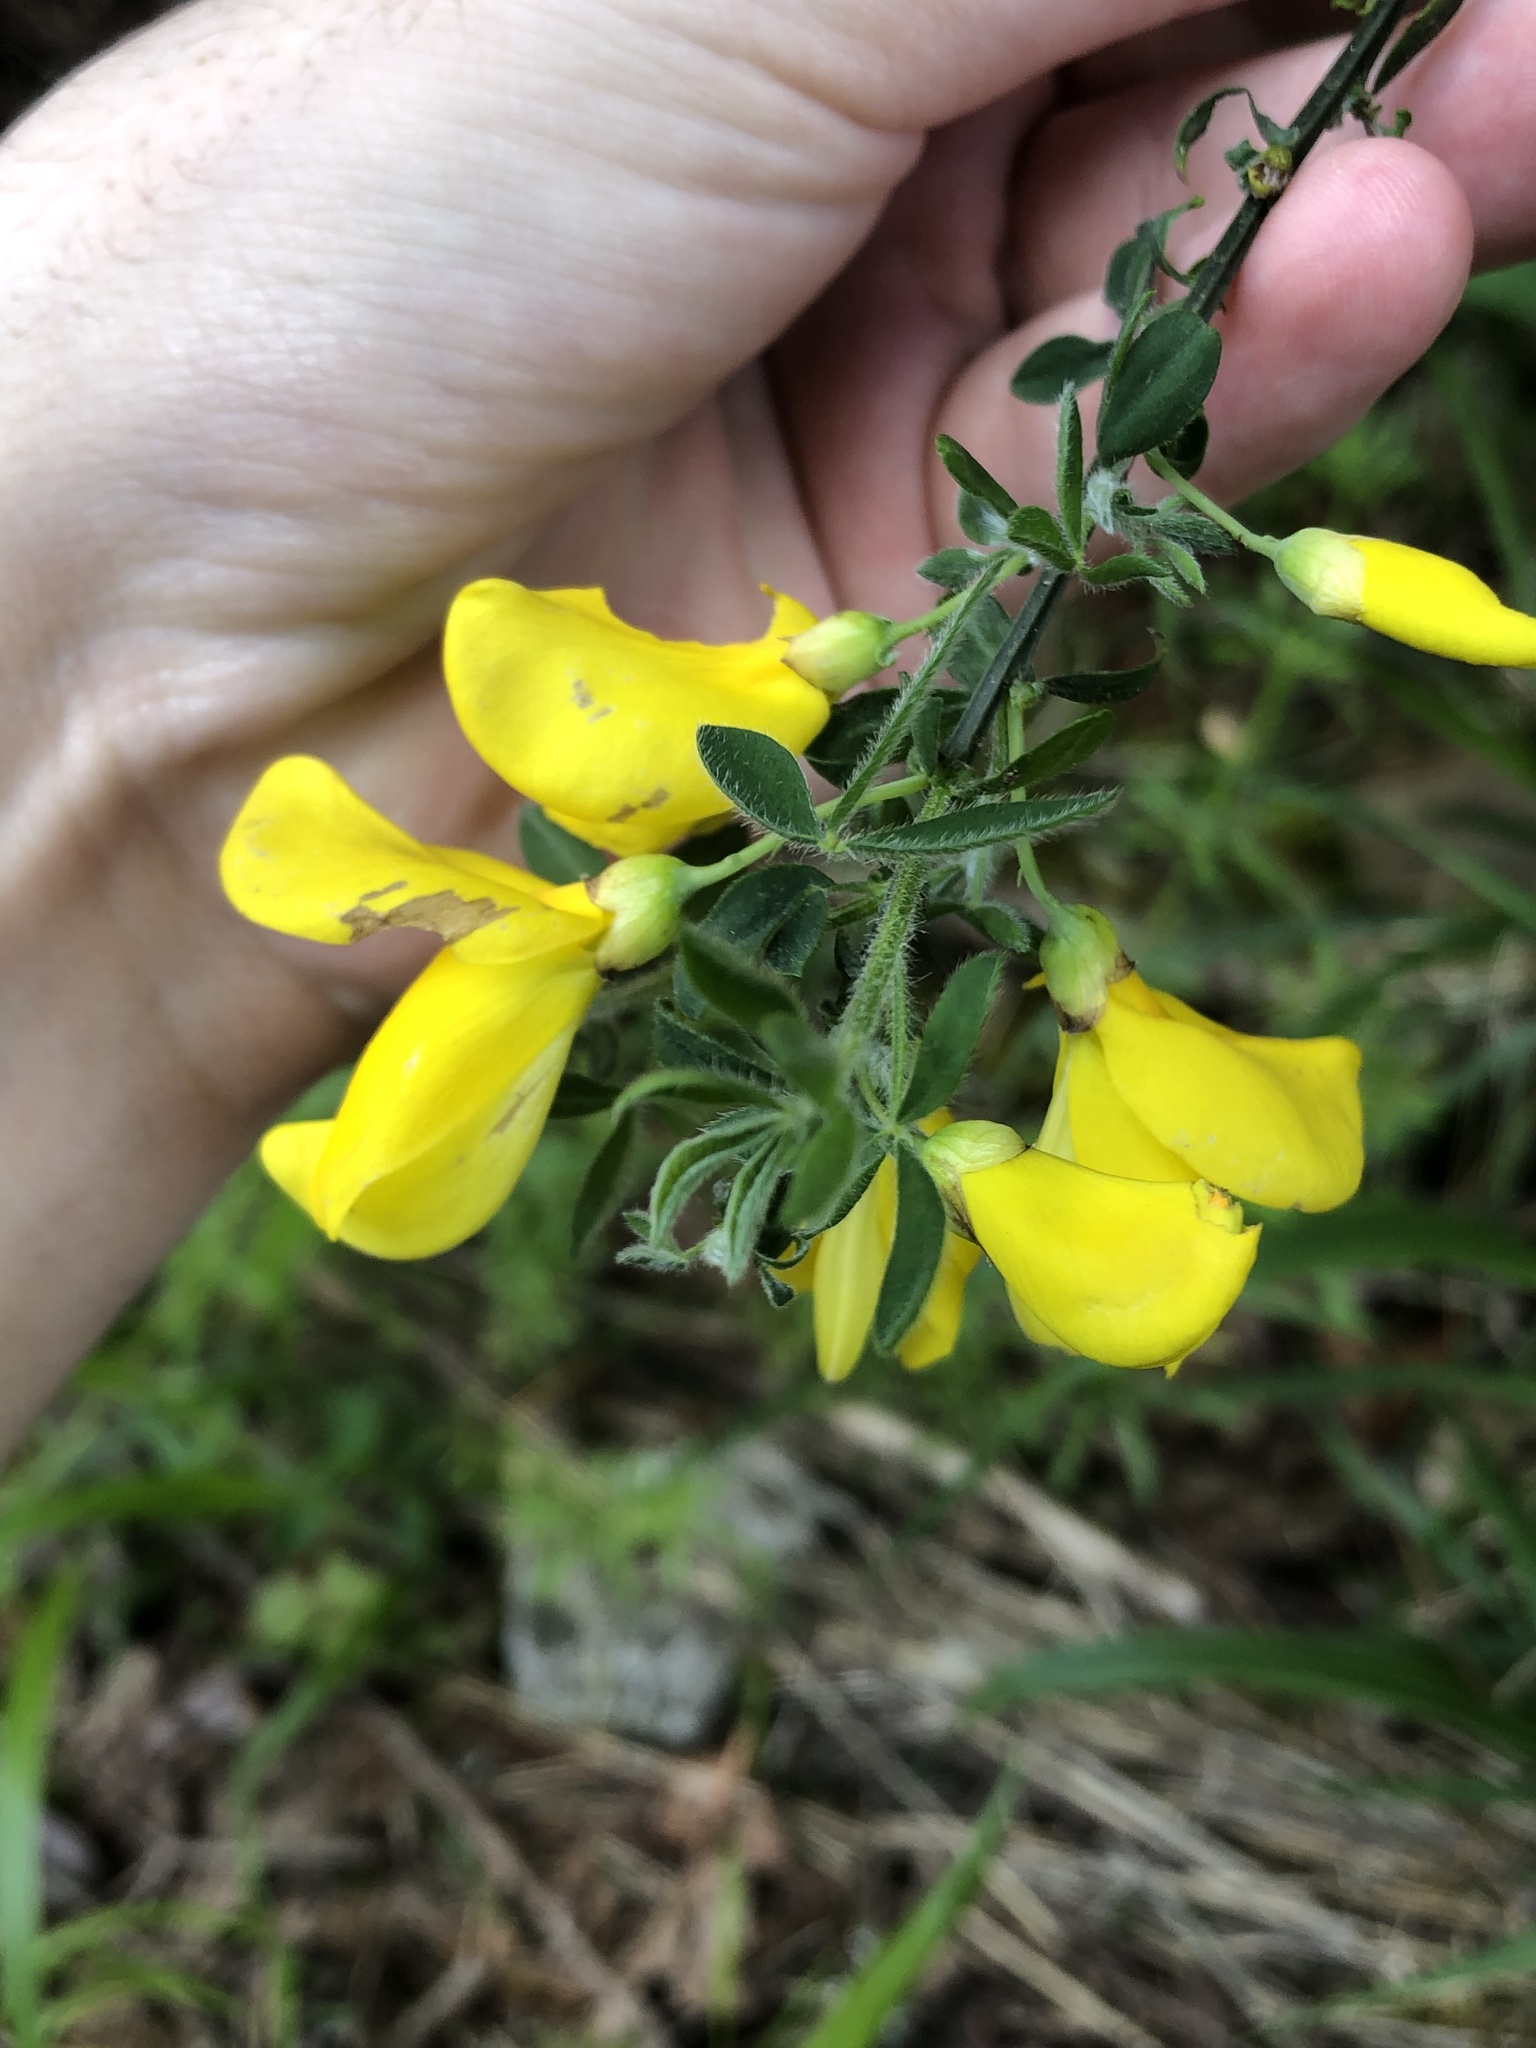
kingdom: Plantae
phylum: Tracheophyta
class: Magnoliopsida
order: Fabales
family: Fabaceae
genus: Cytisus
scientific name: Cytisus scoparius
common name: Scotch broom
